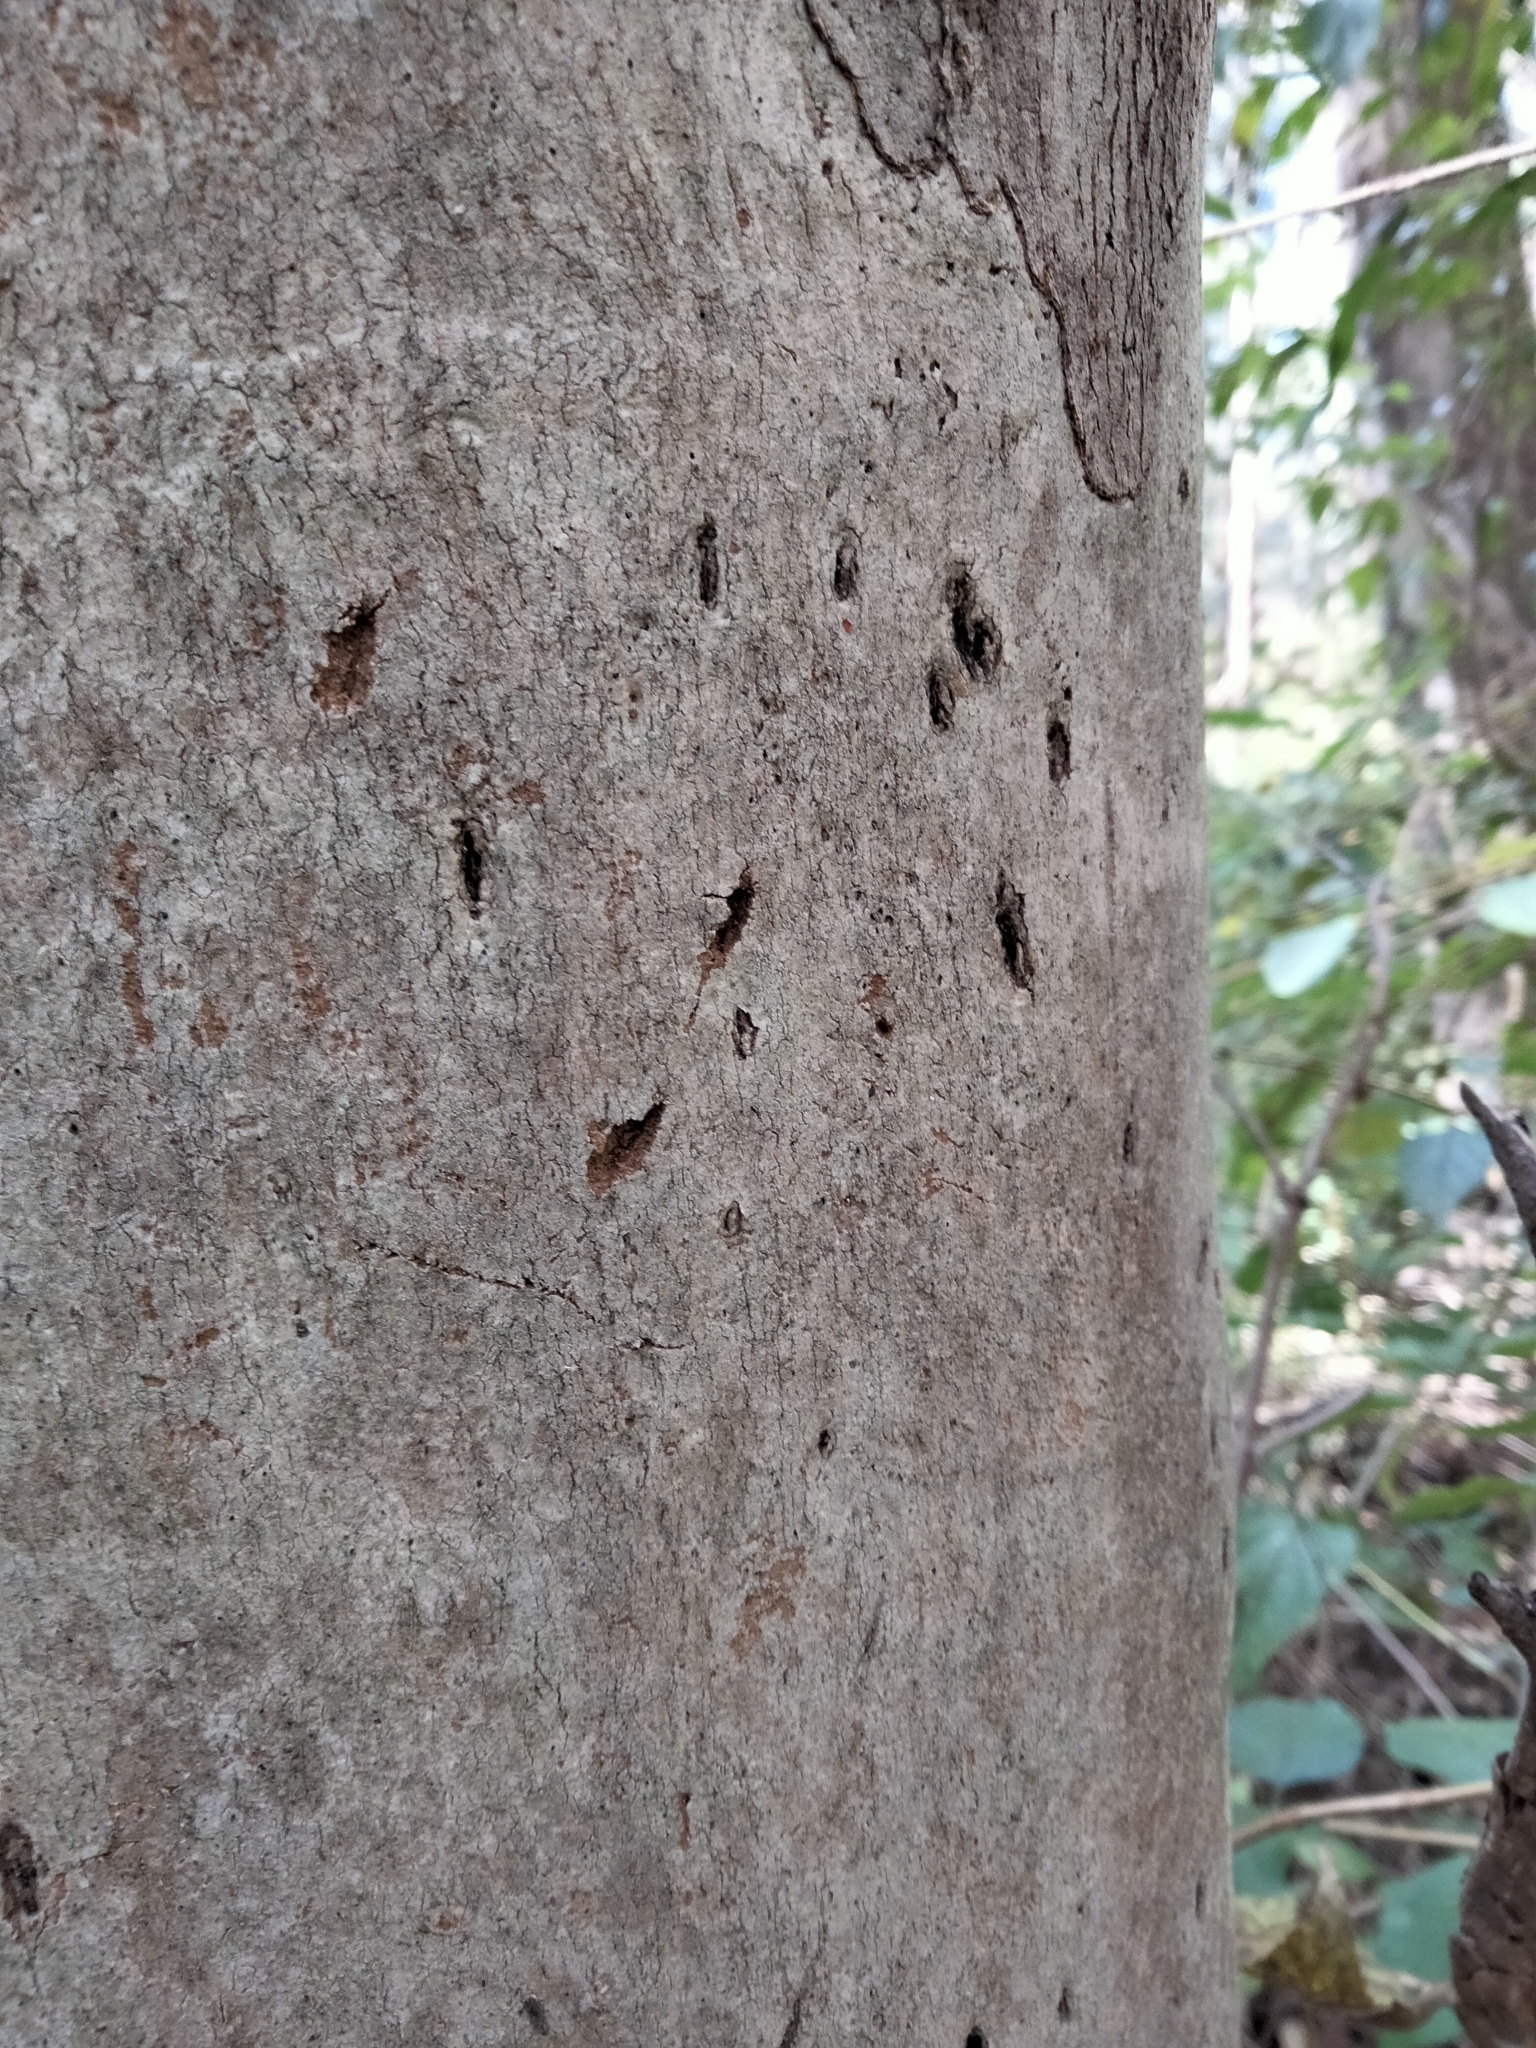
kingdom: Animalia
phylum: Chordata
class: Mammalia
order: Diprotodontia
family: Phascolarctidae
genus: Phascolarctos
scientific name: Phascolarctos cinereus
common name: Koala
